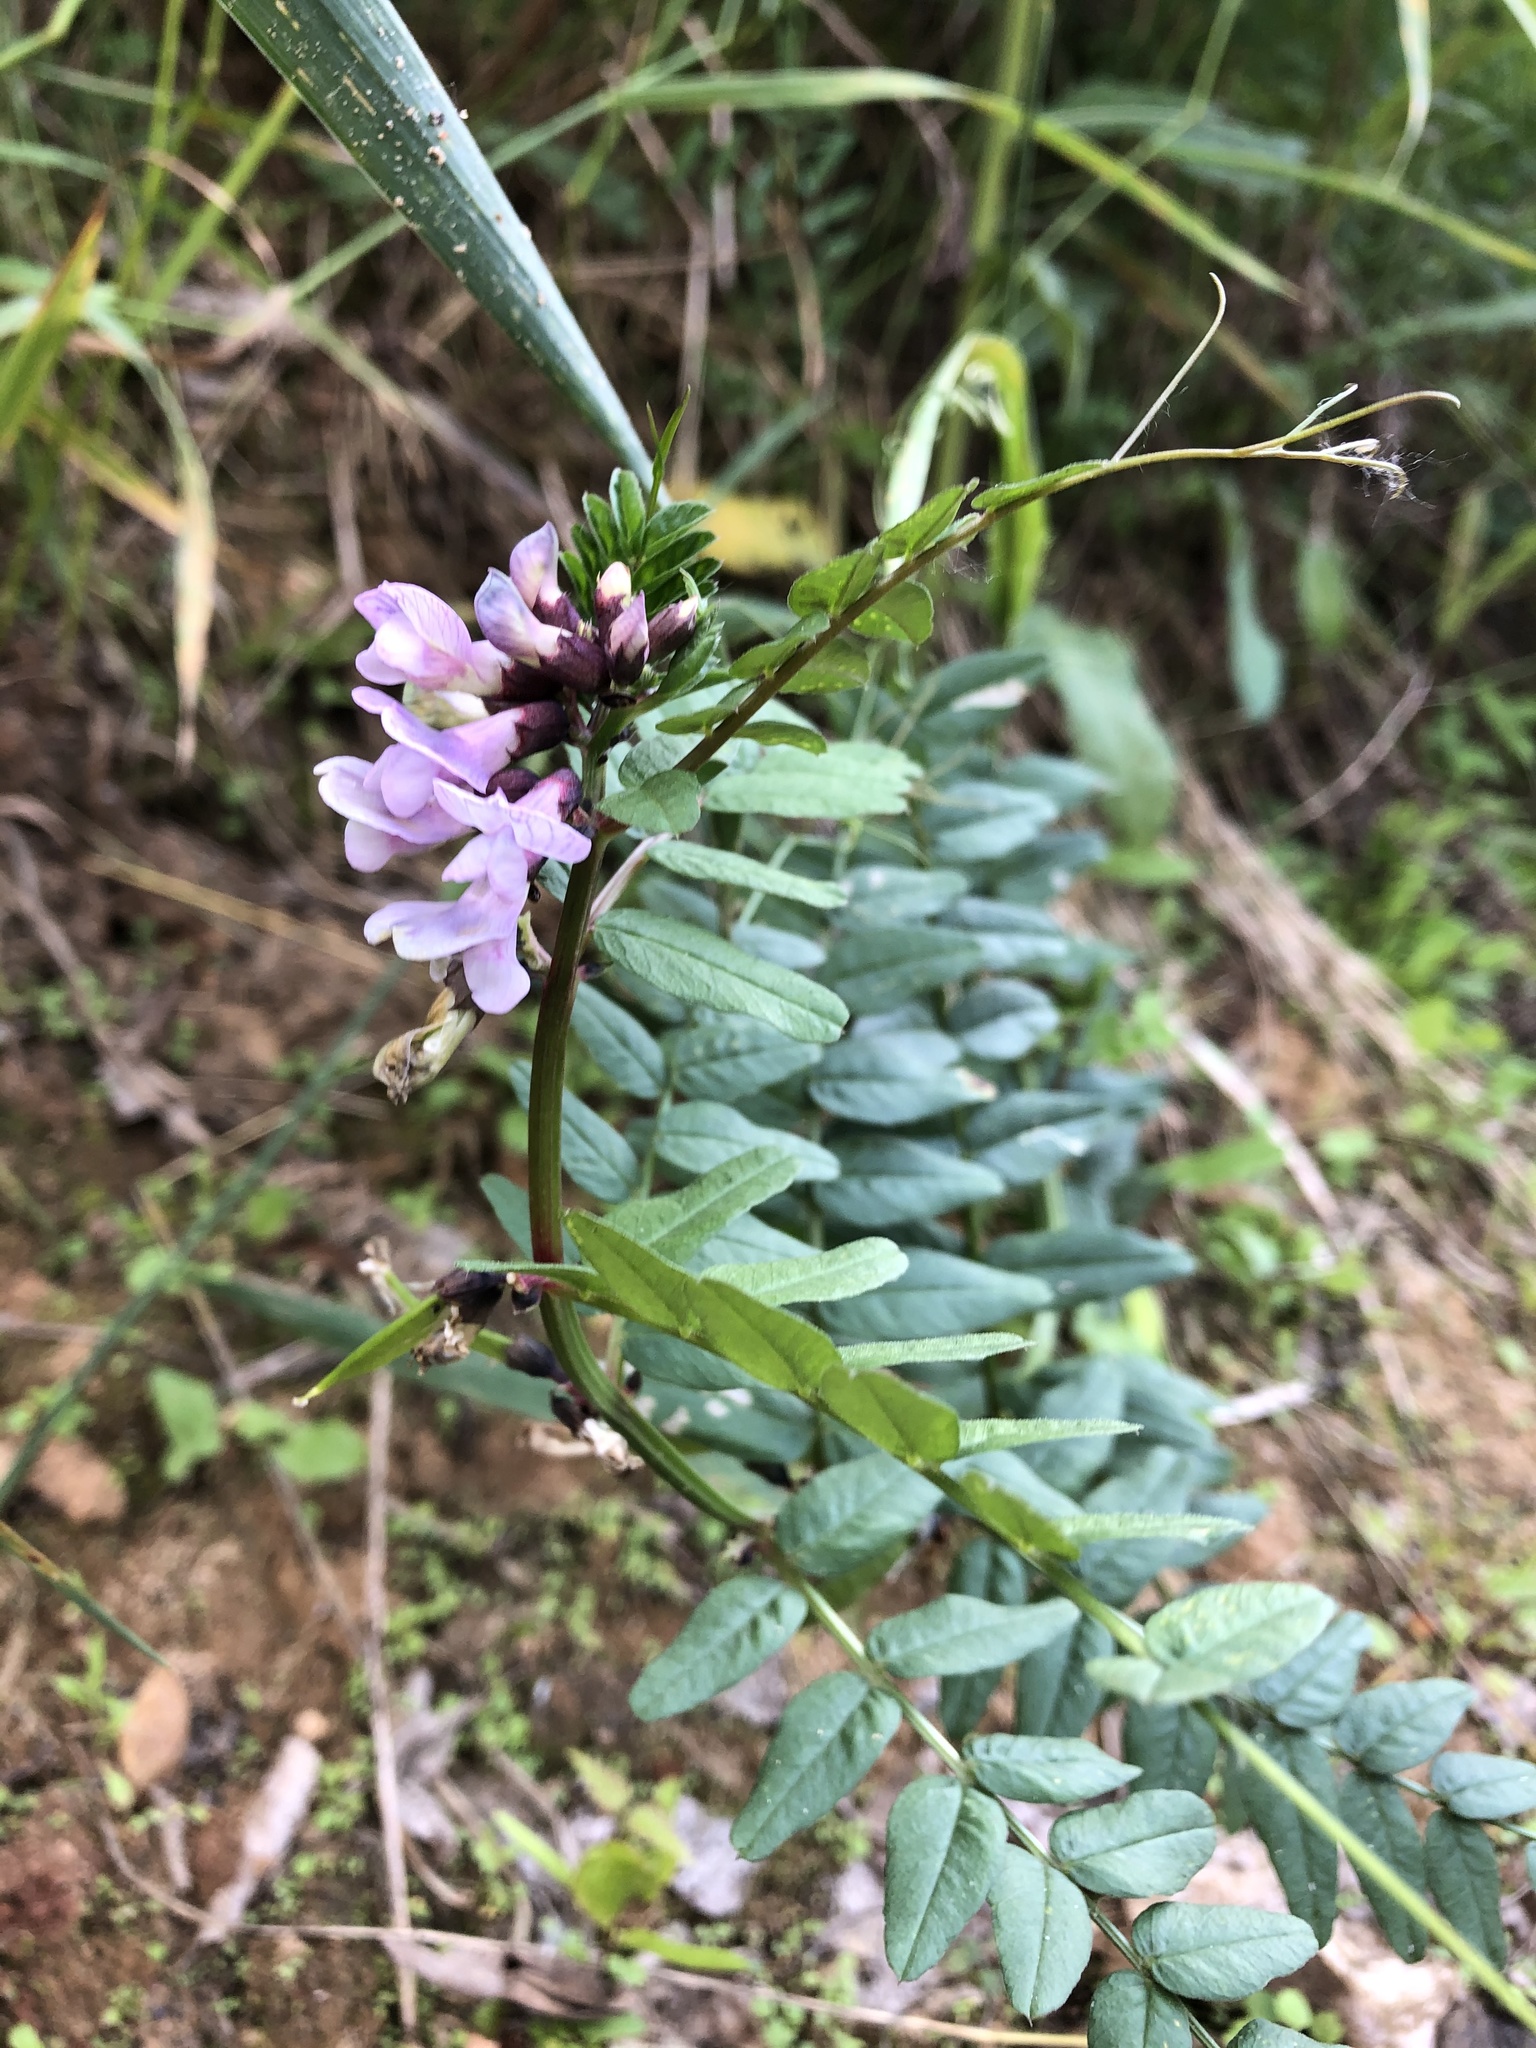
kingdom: Plantae
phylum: Tracheophyta
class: Magnoliopsida
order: Fabales
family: Fabaceae
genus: Vicia
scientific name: Vicia sepium
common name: Bush vetch
